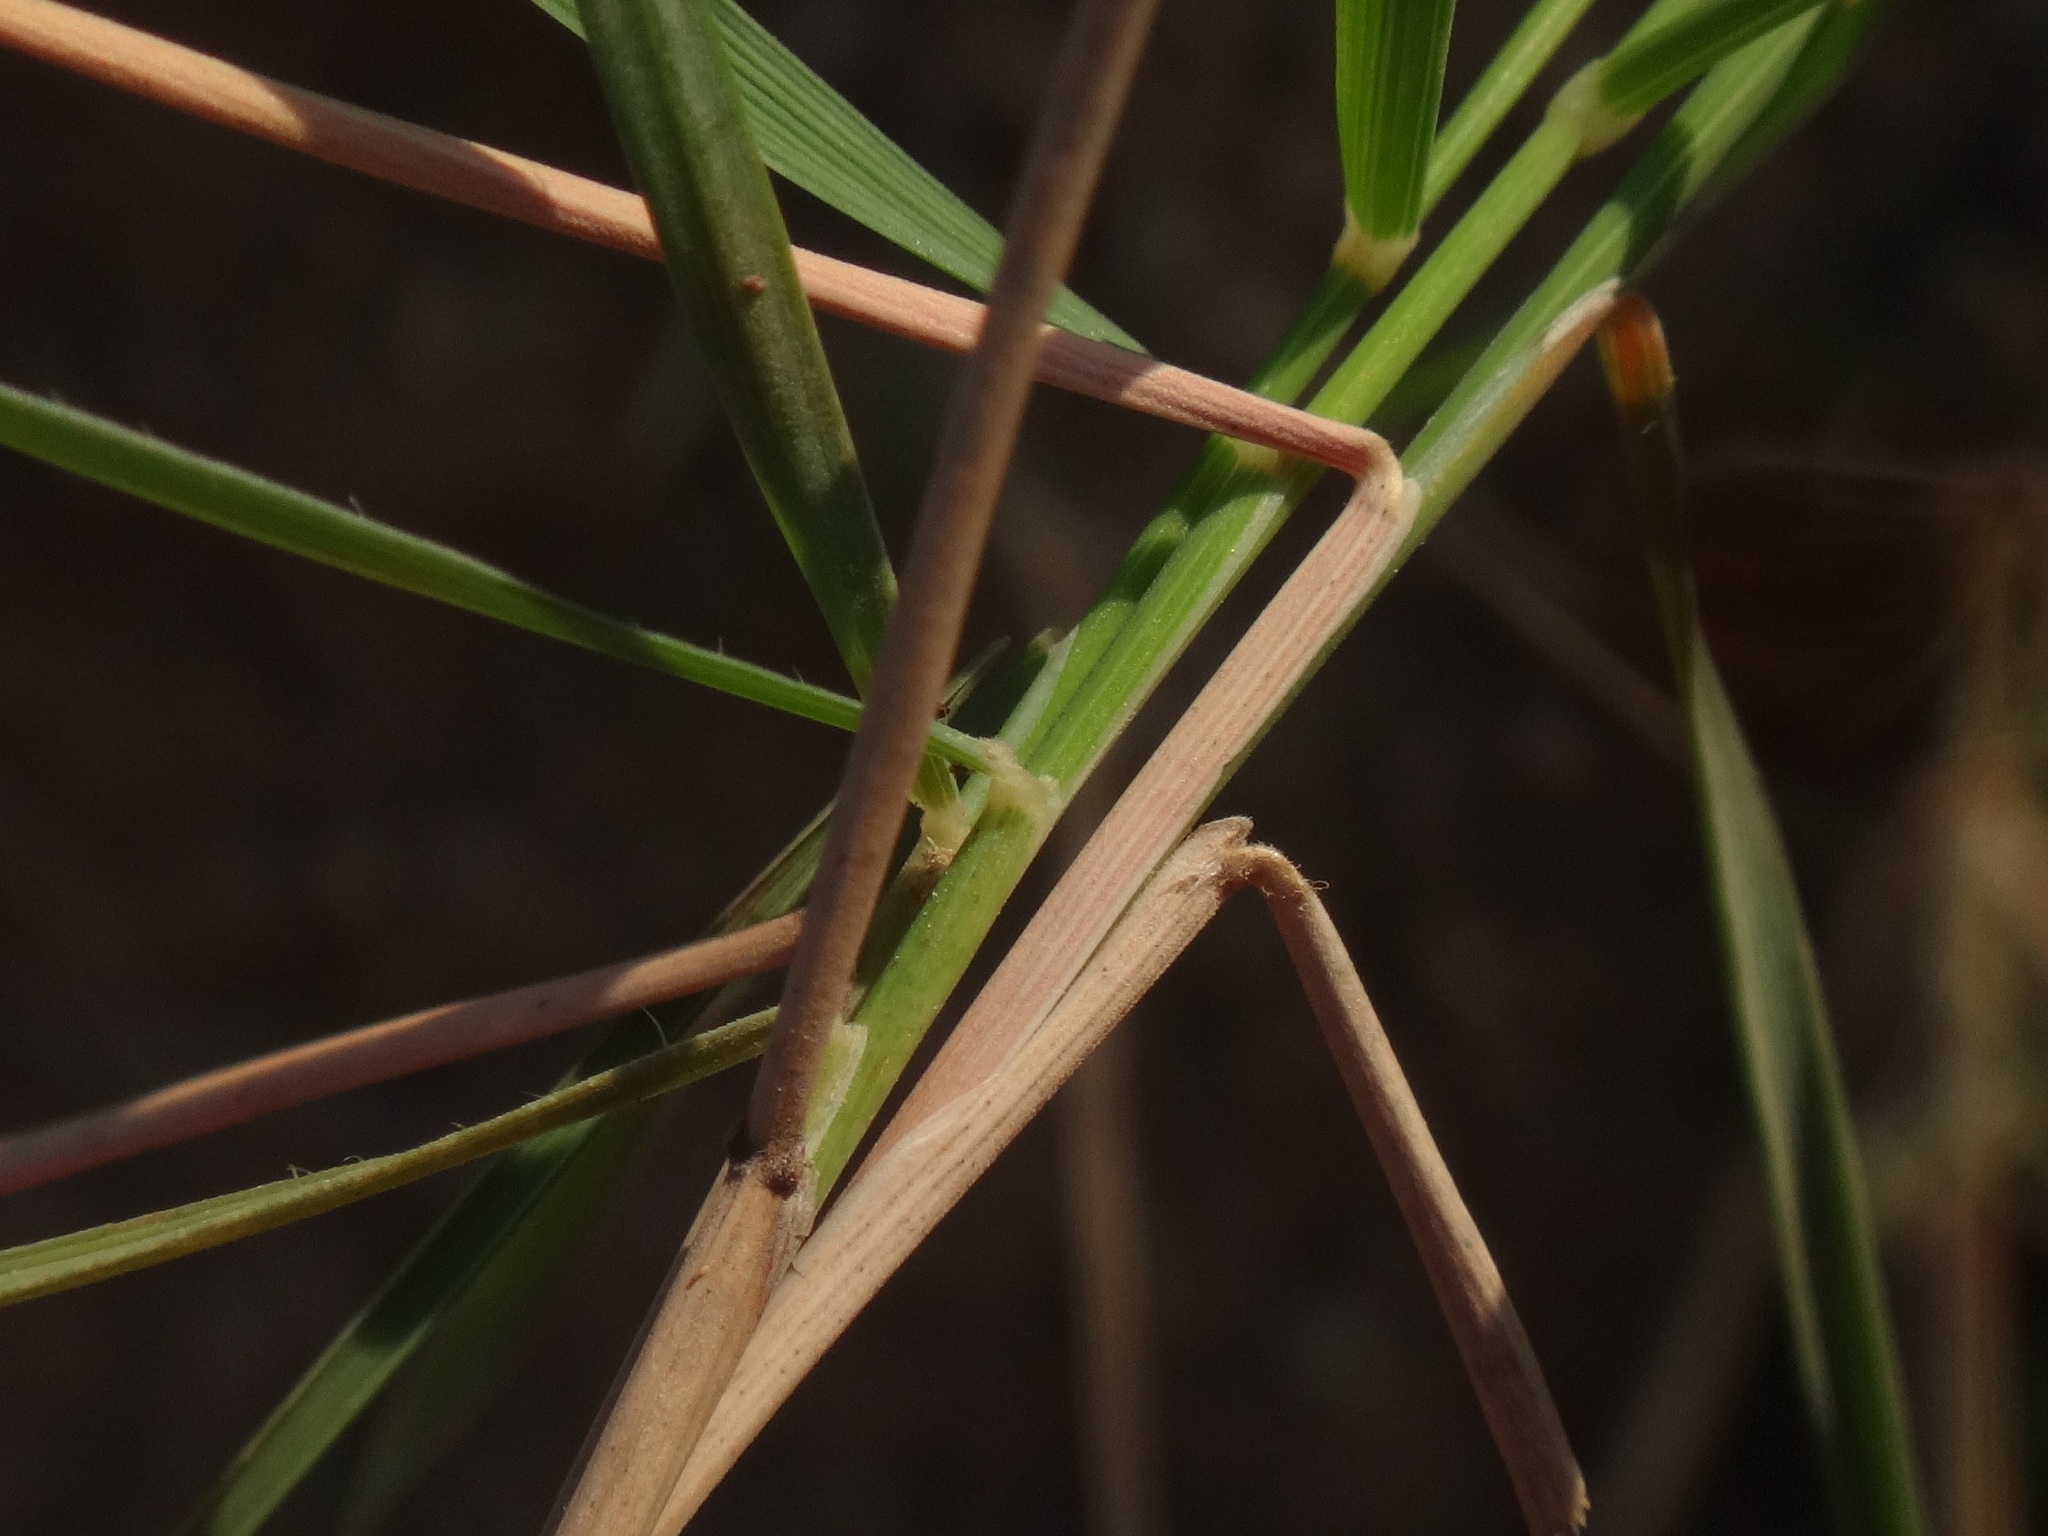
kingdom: Plantae
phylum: Tracheophyta
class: Liliopsida
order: Poales
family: Poaceae
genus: Brachypodium
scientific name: Brachypodium retusum
